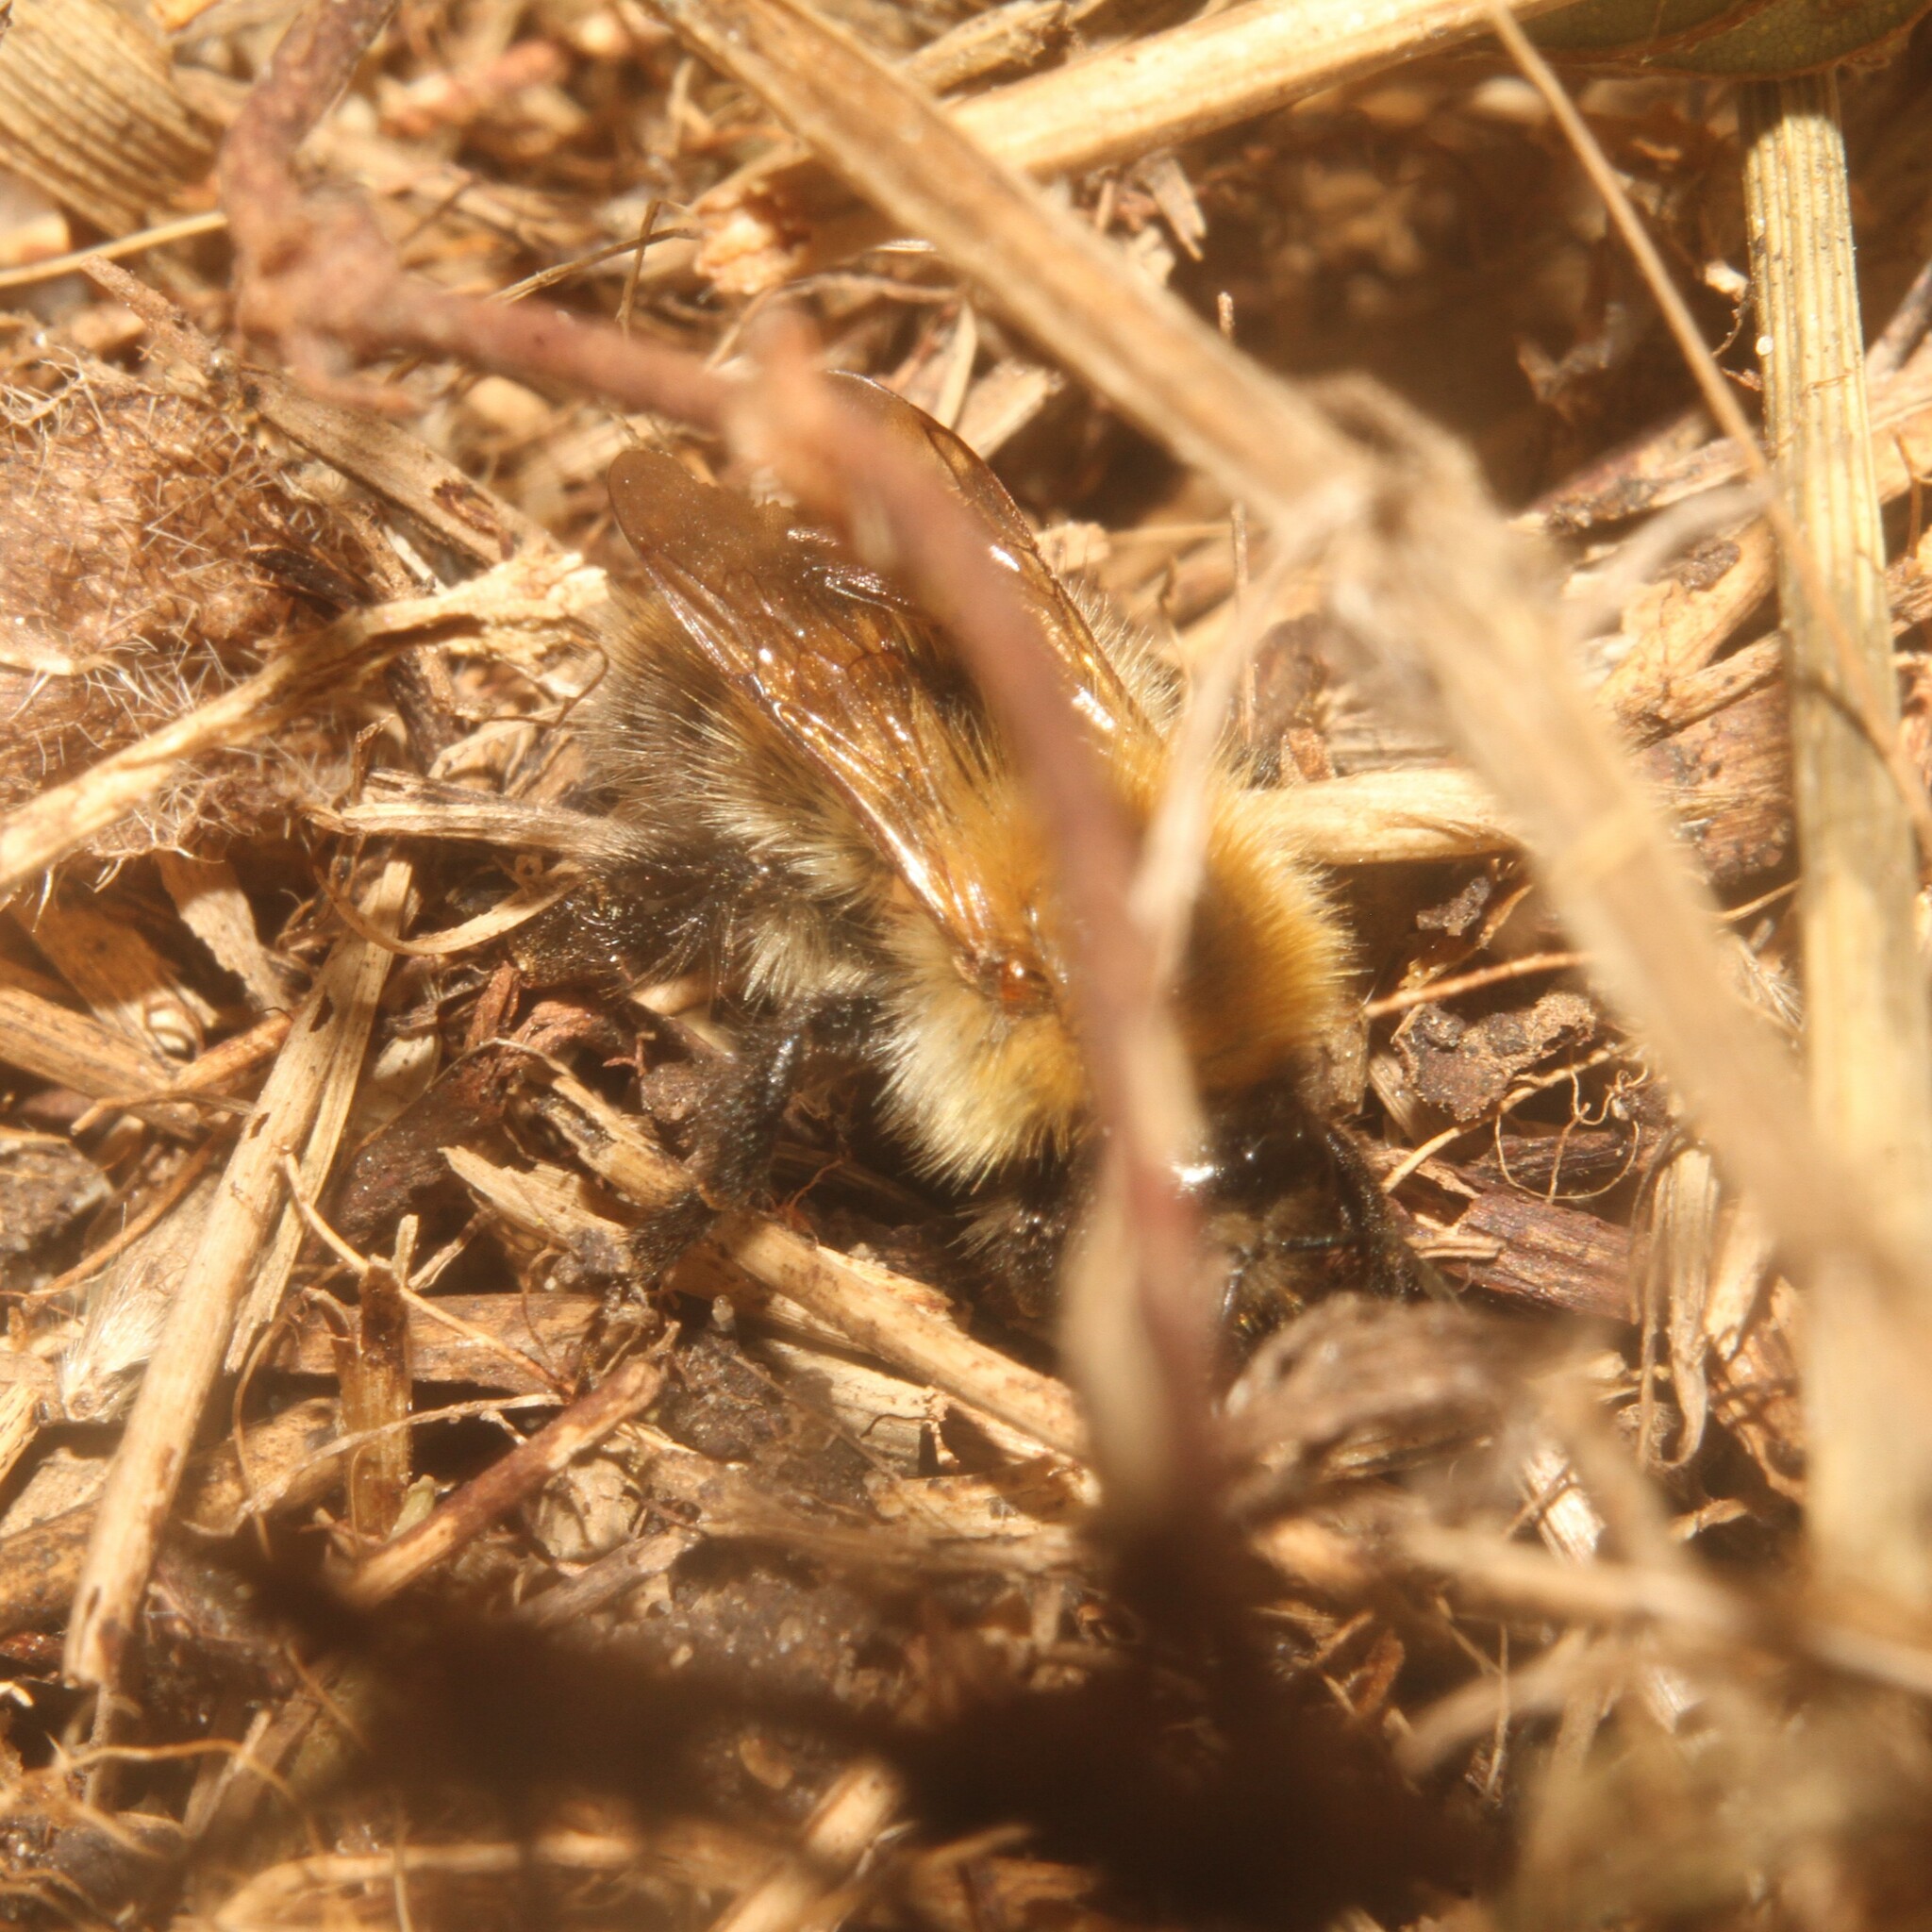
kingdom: Animalia
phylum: Arthropoda
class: Insecta
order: Hymenoptera
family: Apidae
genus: Bombus
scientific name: Bombus pascuorum
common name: Common carder bee
